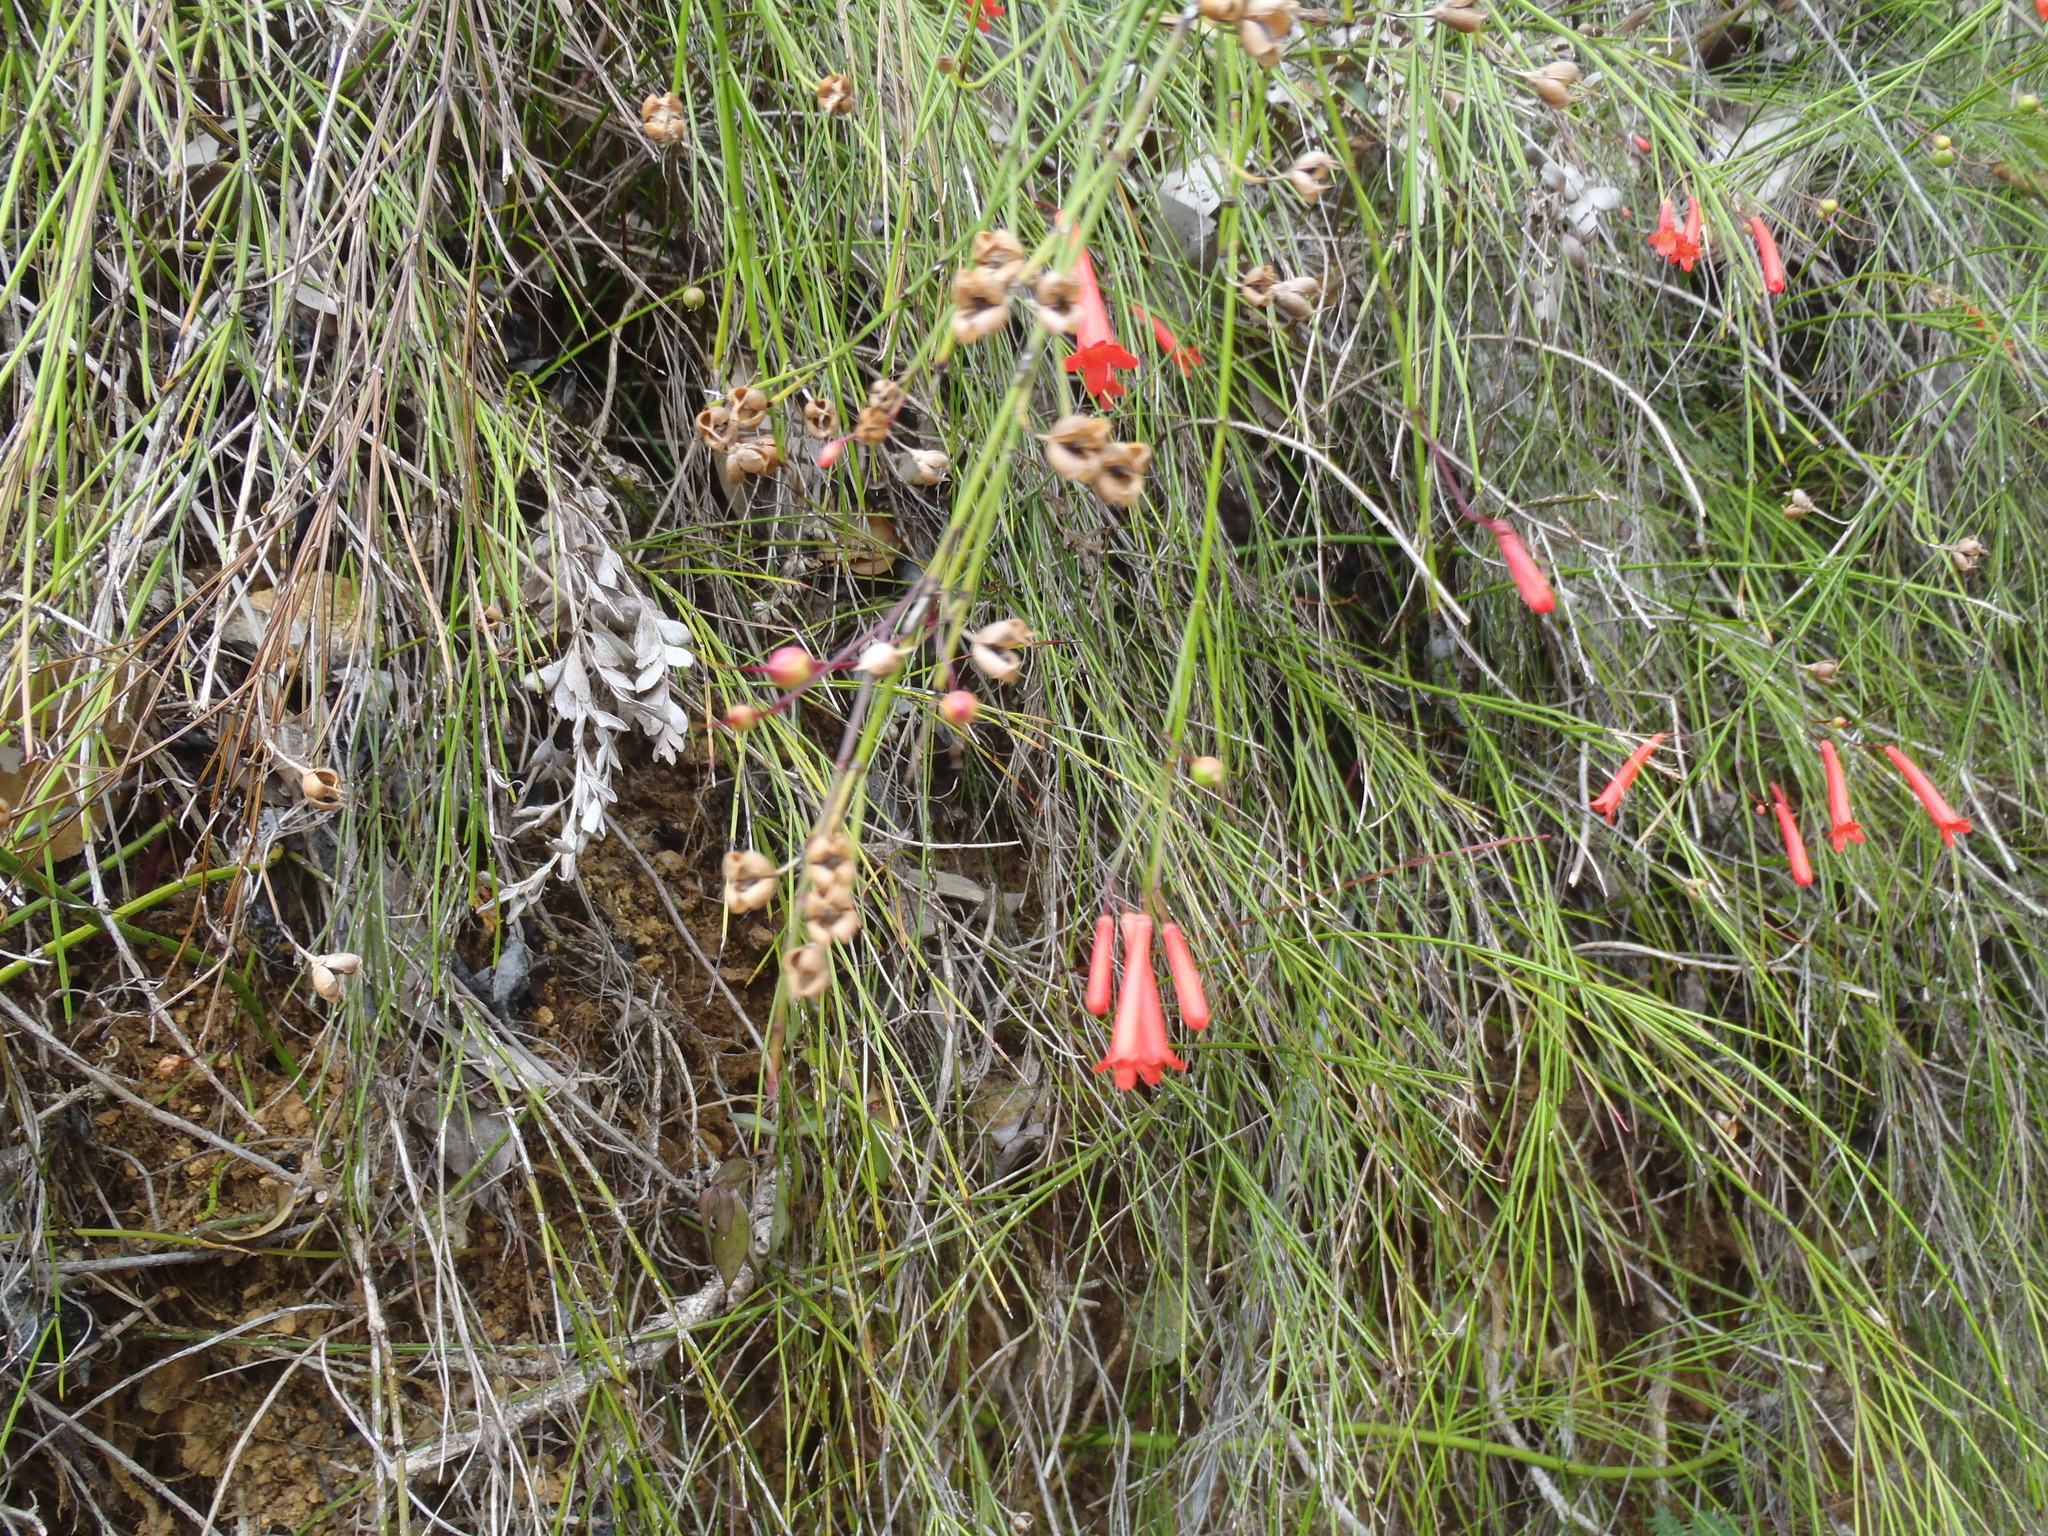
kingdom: Plantae
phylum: Tracheophyta
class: Magnoliopsida
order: Lamiales
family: Plantaginaceae
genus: Russelia
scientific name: Russelia equisetiformis
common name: Fountainbush
